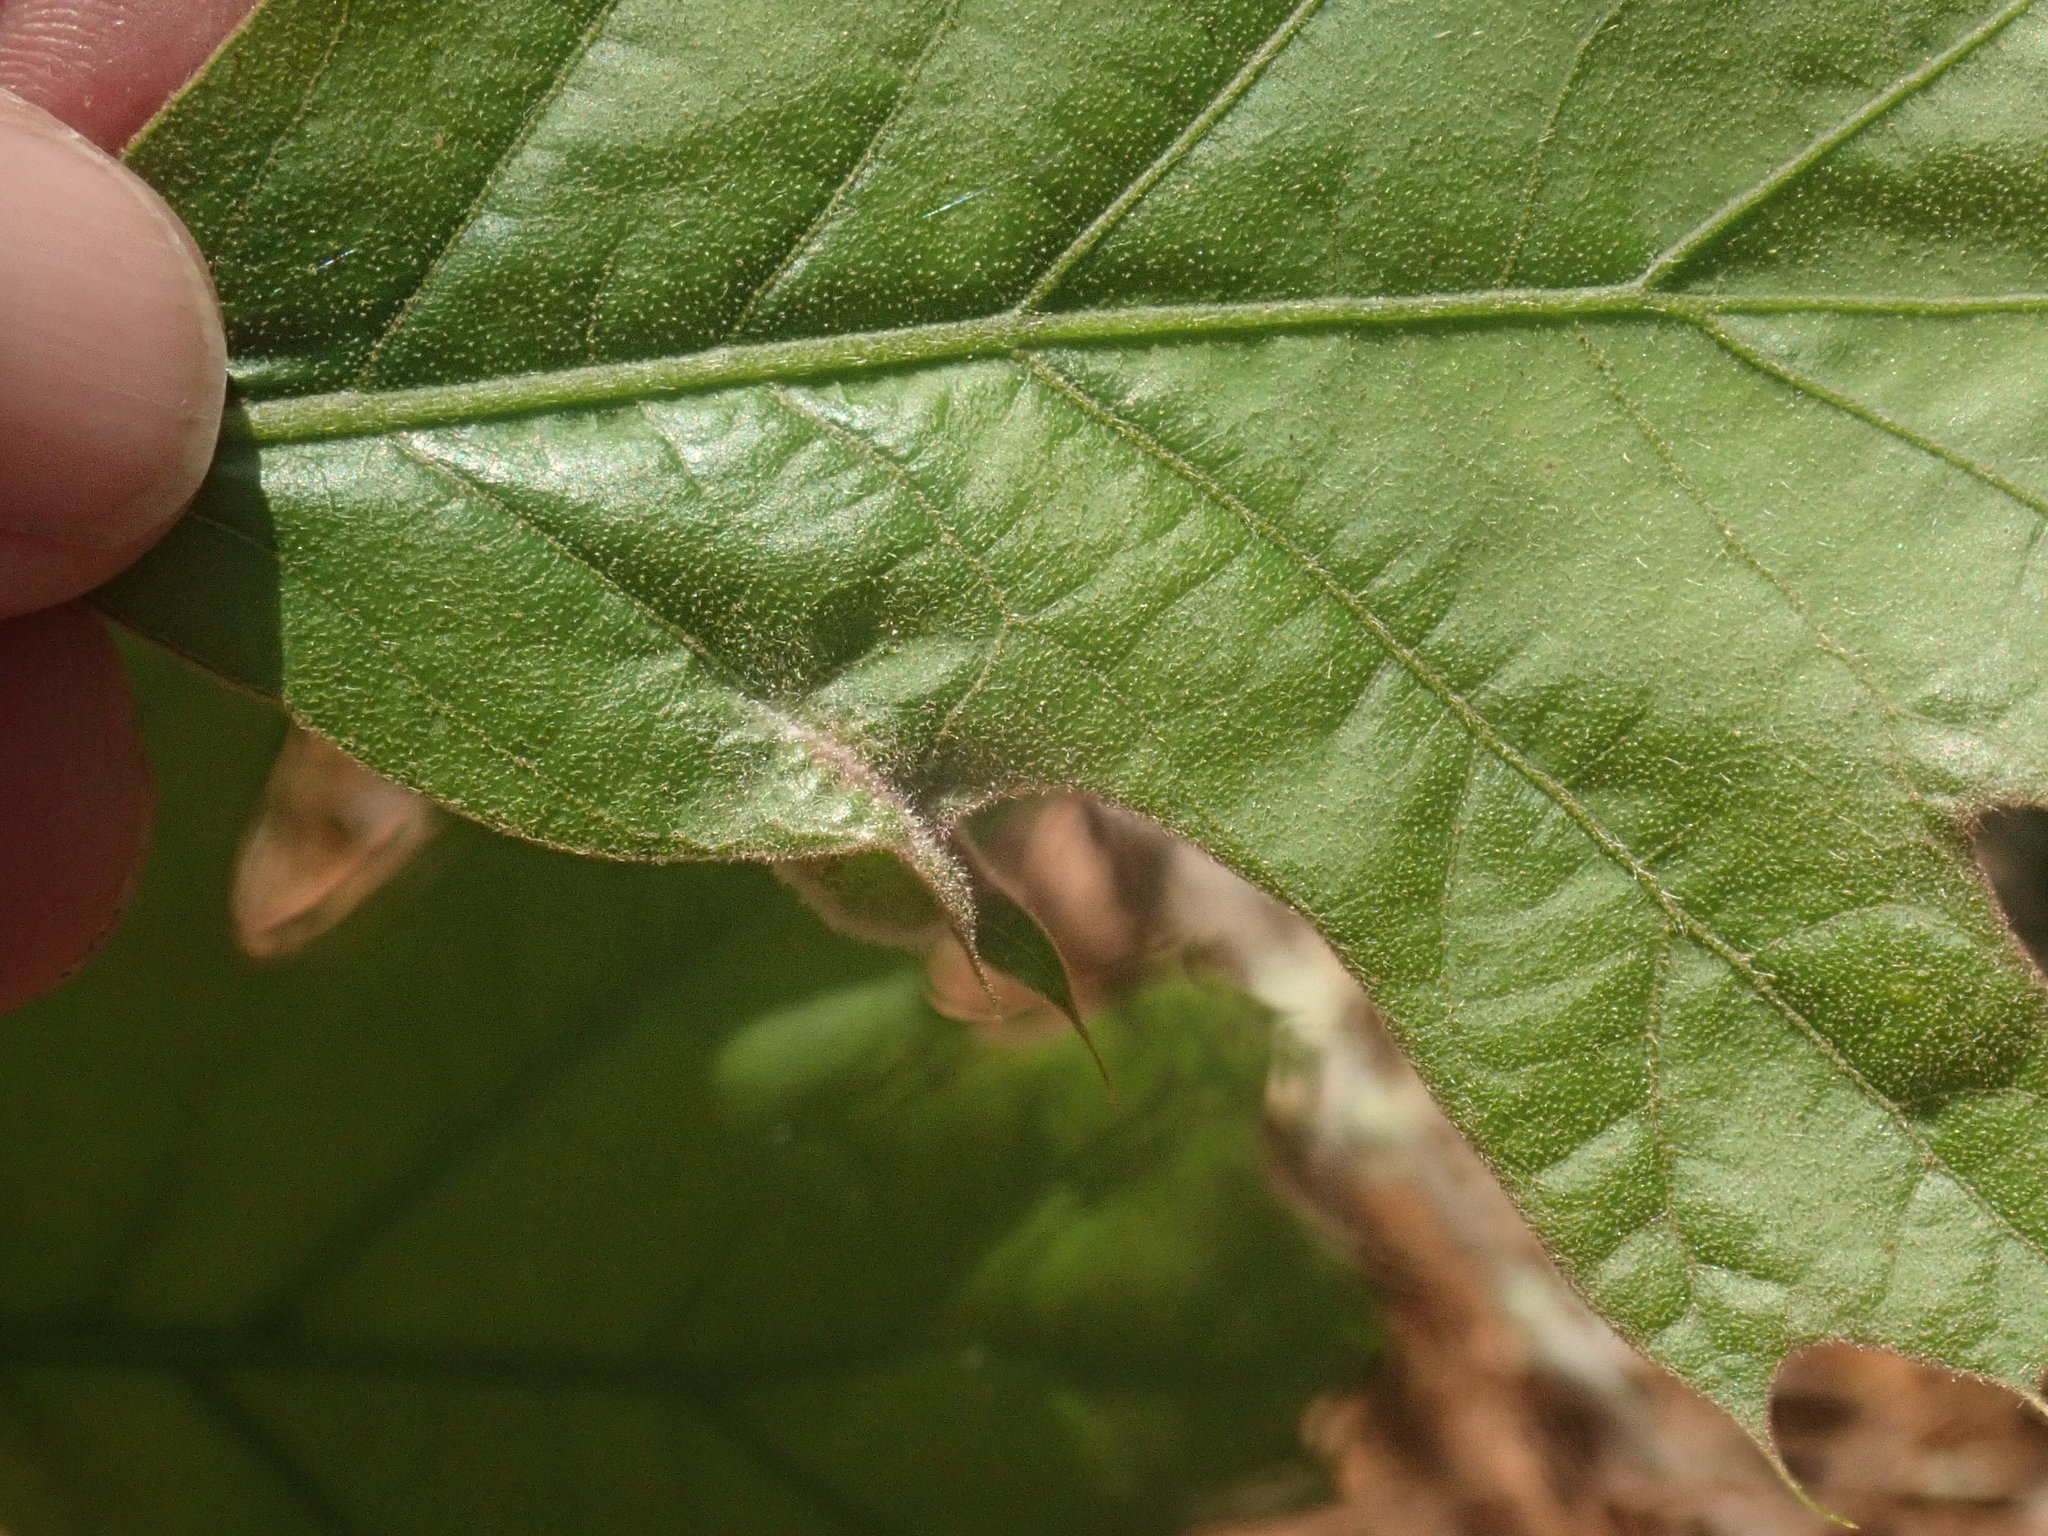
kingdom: Animalia
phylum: Arthropoda
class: Insecta
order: Diptera
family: Cecidomyiidae
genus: Macrodiplosis
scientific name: Macrodiplosis niveipila
